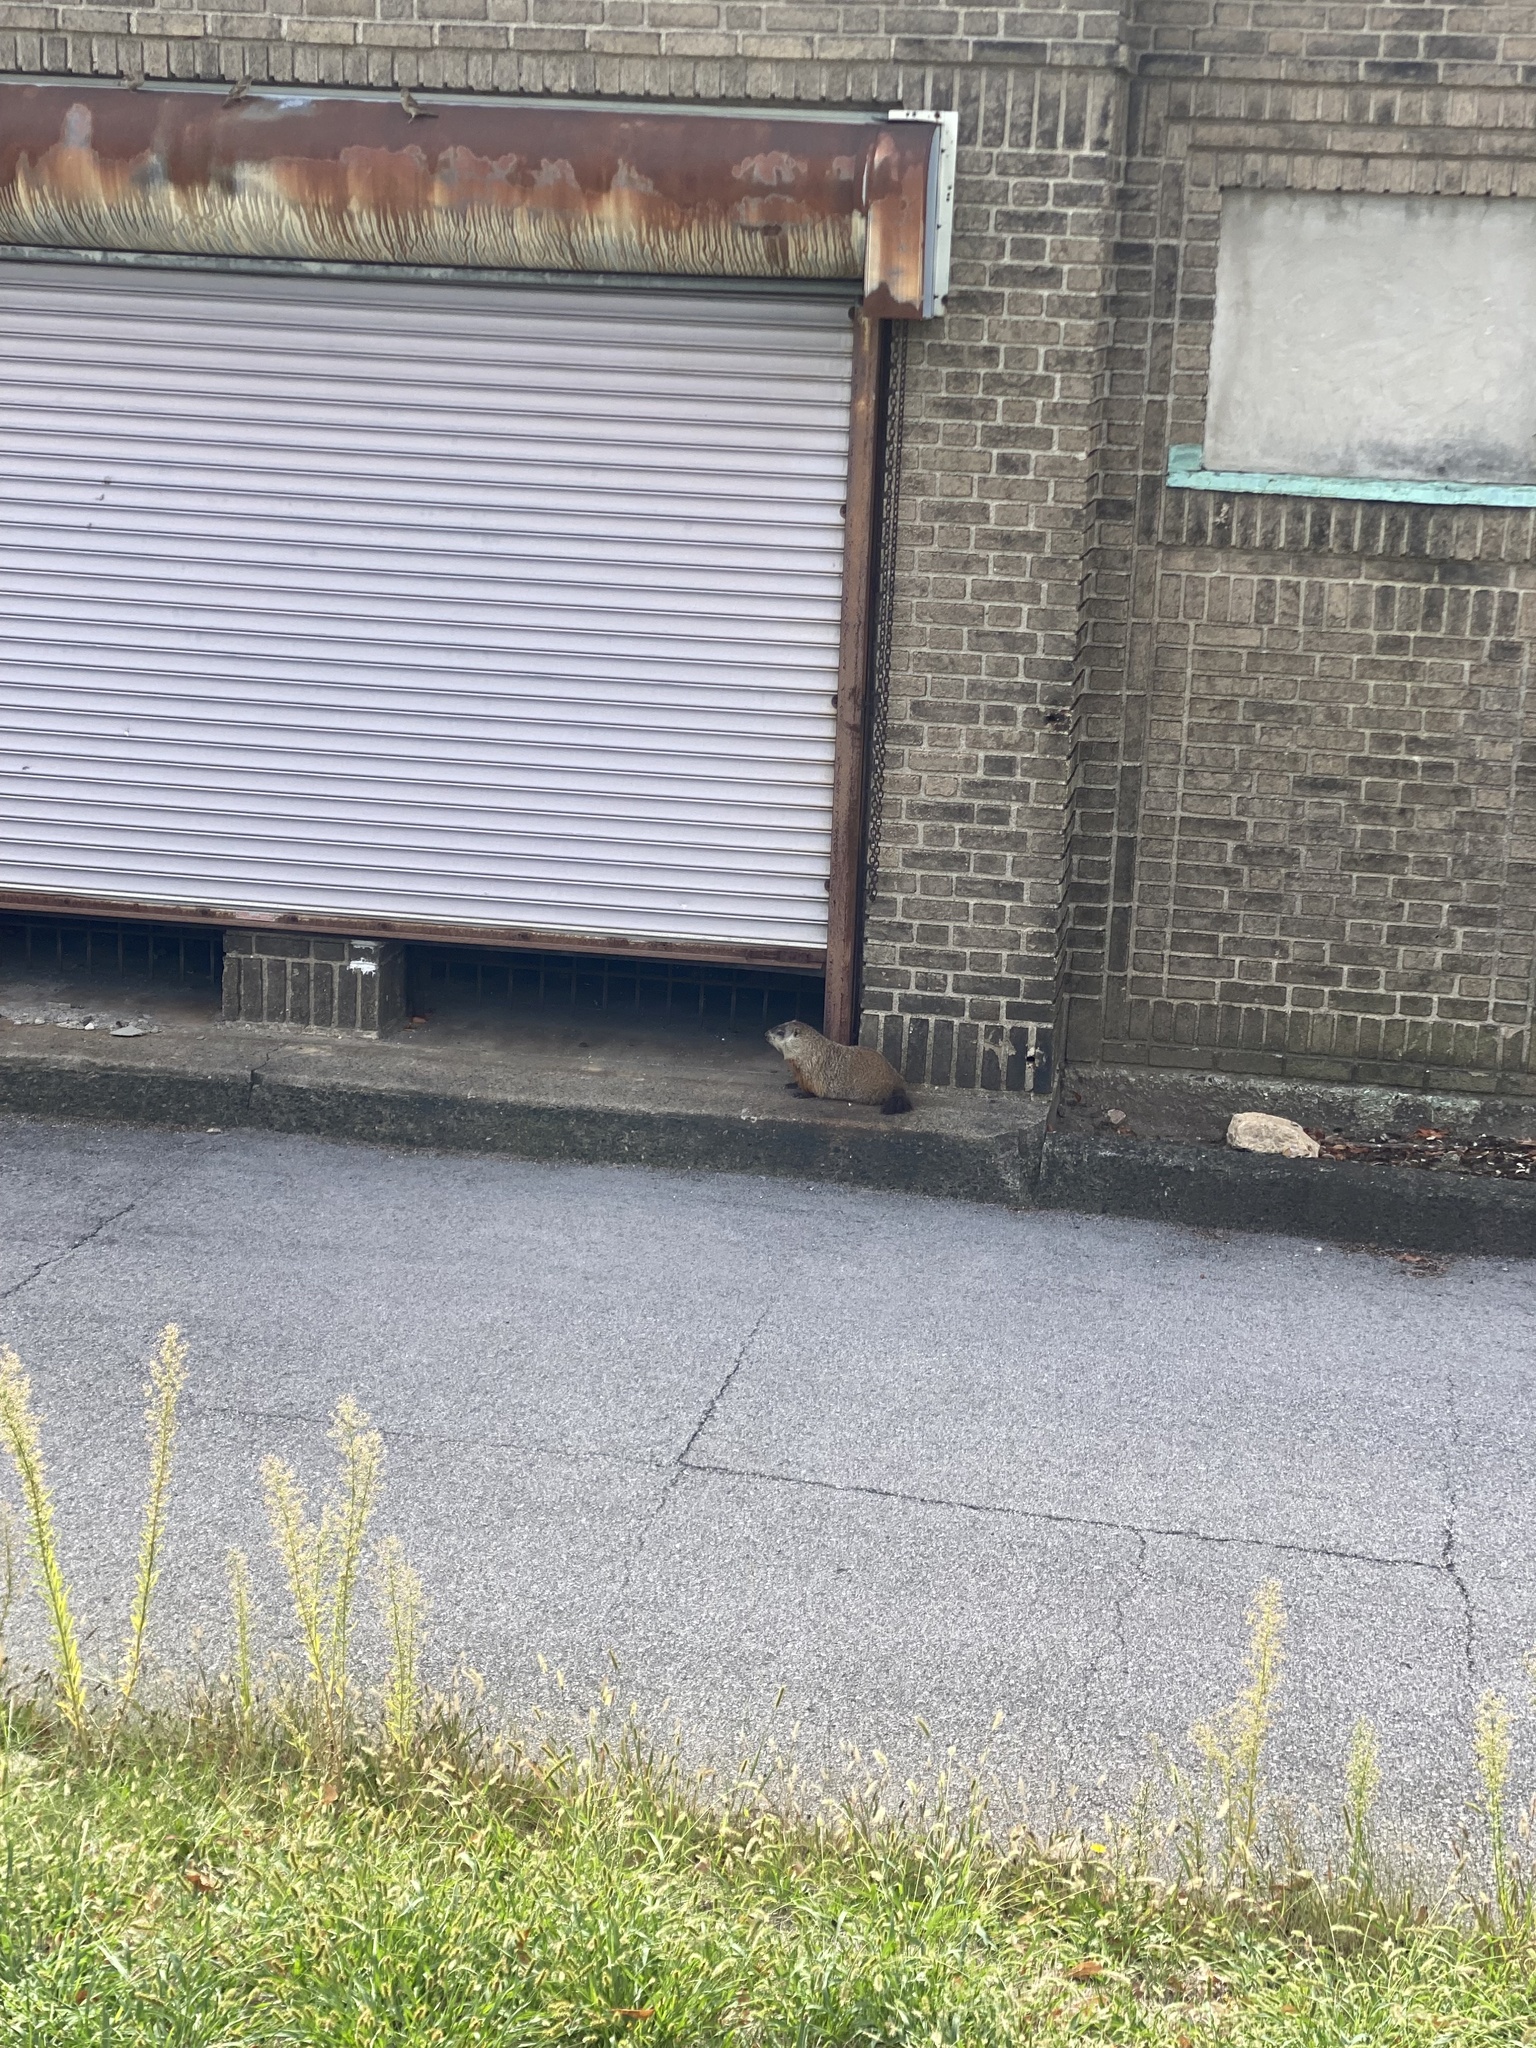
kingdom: Animalia
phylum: Chordata
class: Mammalia
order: Rodentia
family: Sciuridae
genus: Marmota
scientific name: Marmota monax
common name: Groundhog
